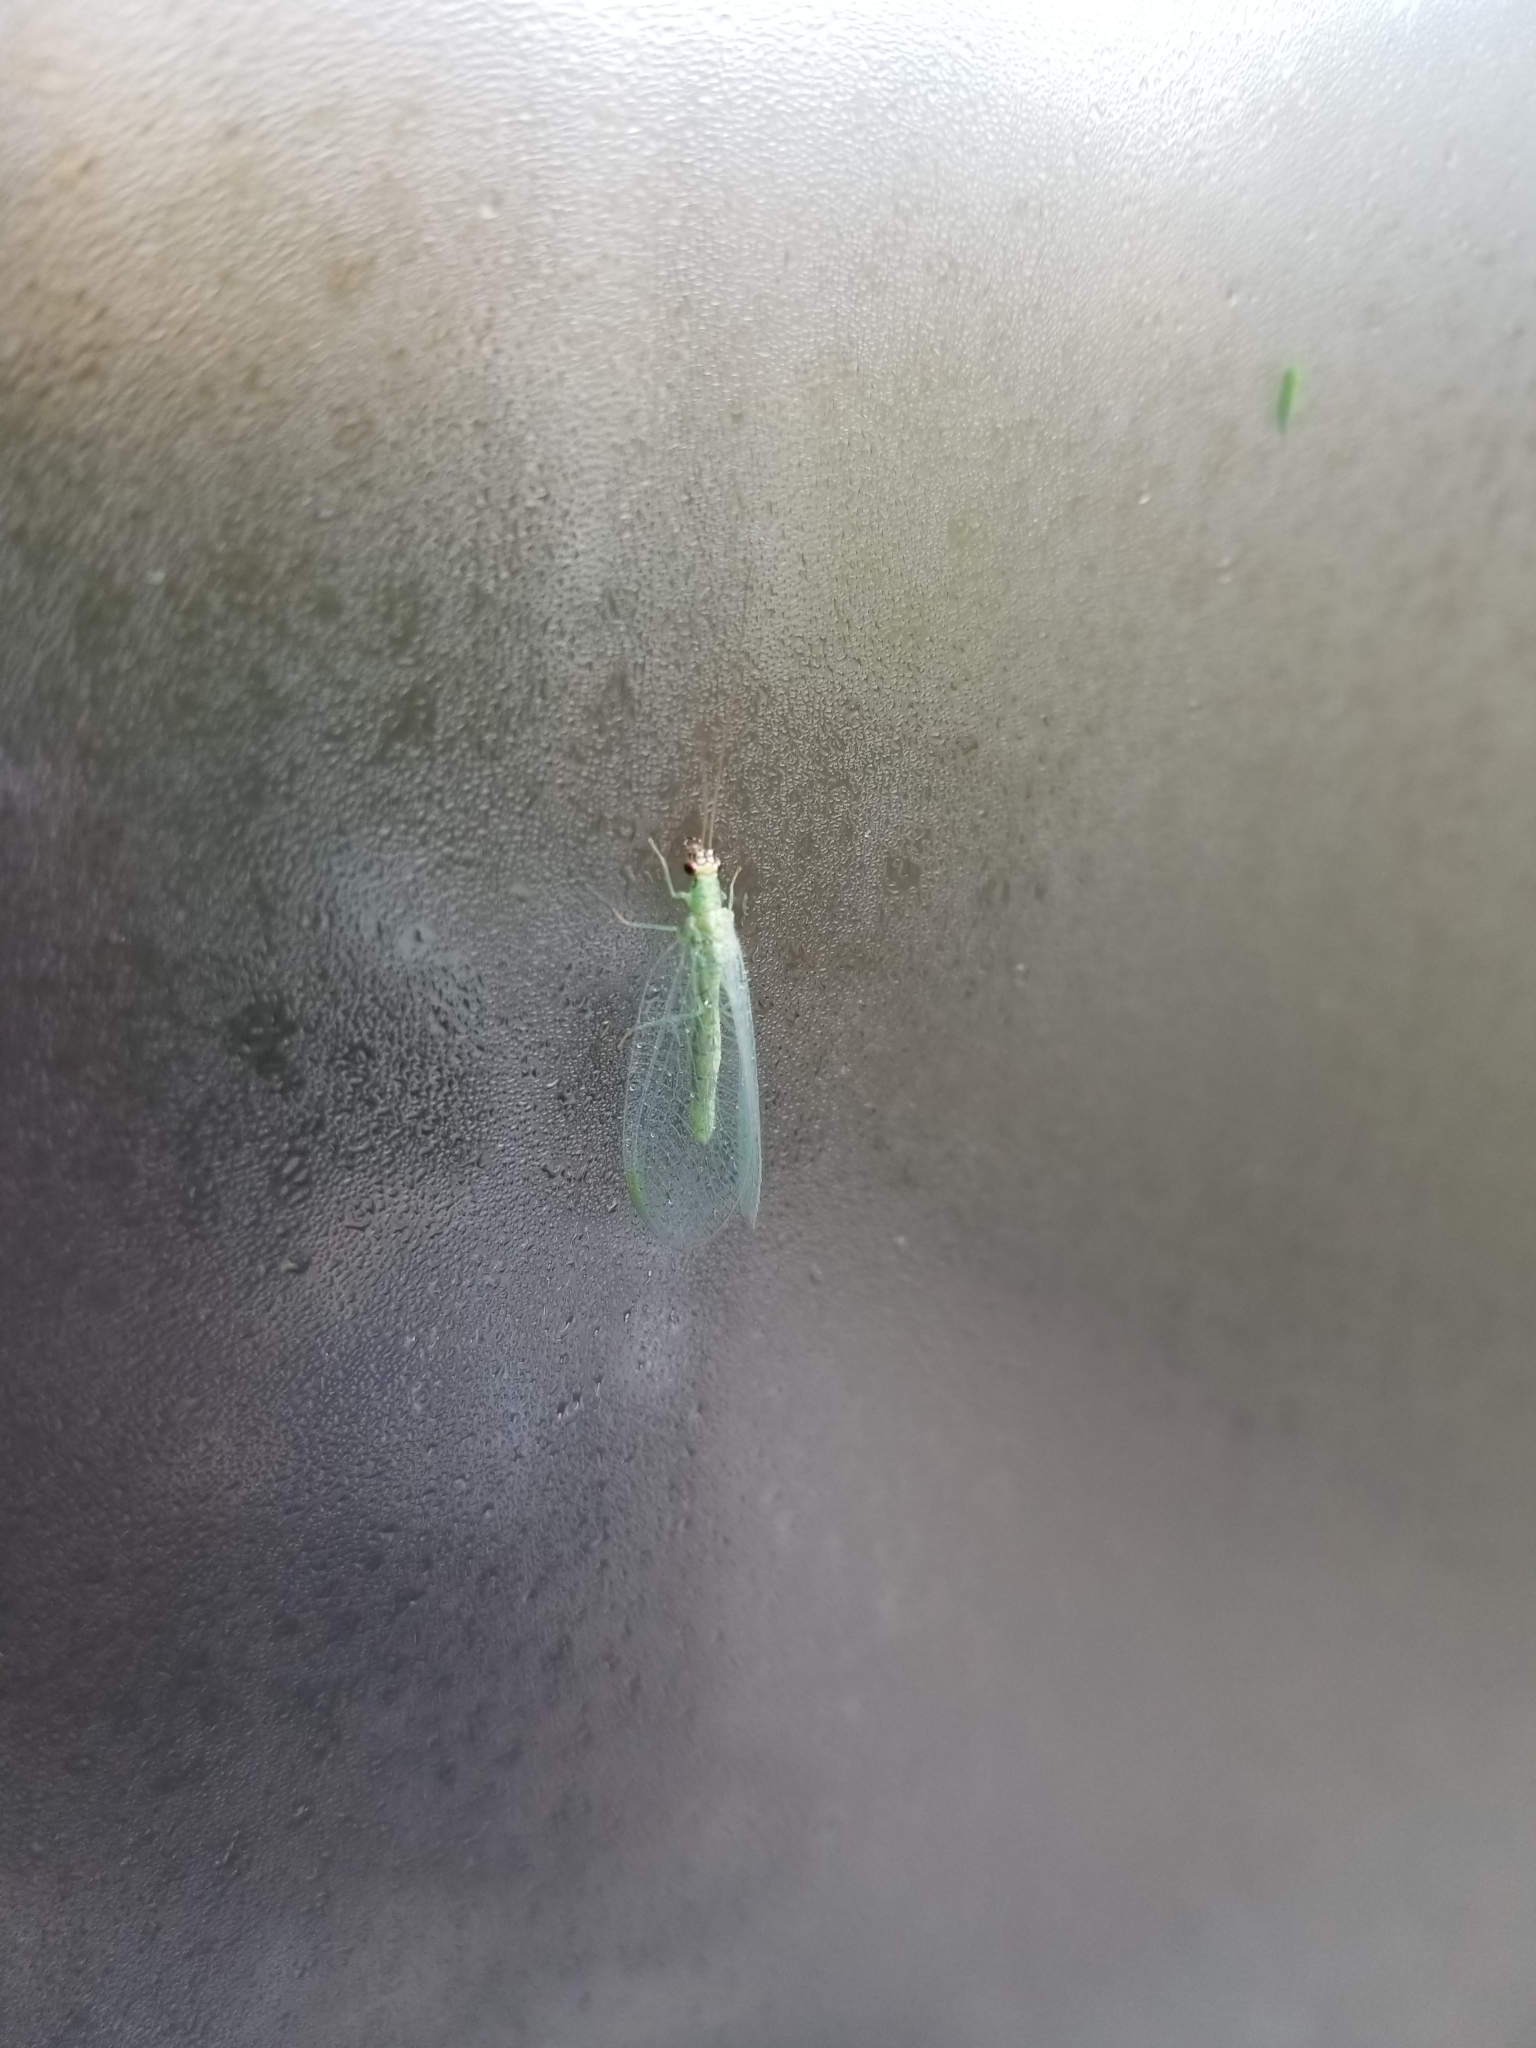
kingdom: Animalia
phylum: Arthropoda
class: Insecta
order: Neuroptera
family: Chrysopidae
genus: Chrysopa
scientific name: Chrysopa oculata
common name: Golden-eyed lacewing
